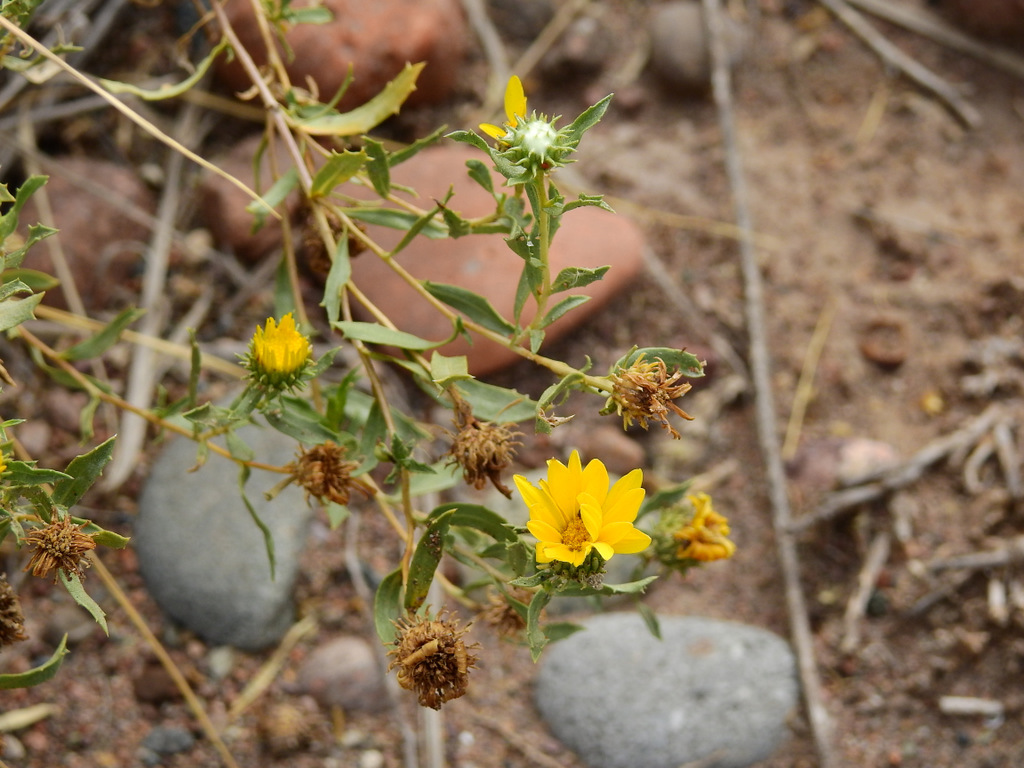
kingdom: Plantae
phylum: Tracheophyta
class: Magnoliopsida
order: Asterales
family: Asteraceae
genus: Grindelia
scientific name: Grindelia pulchella
